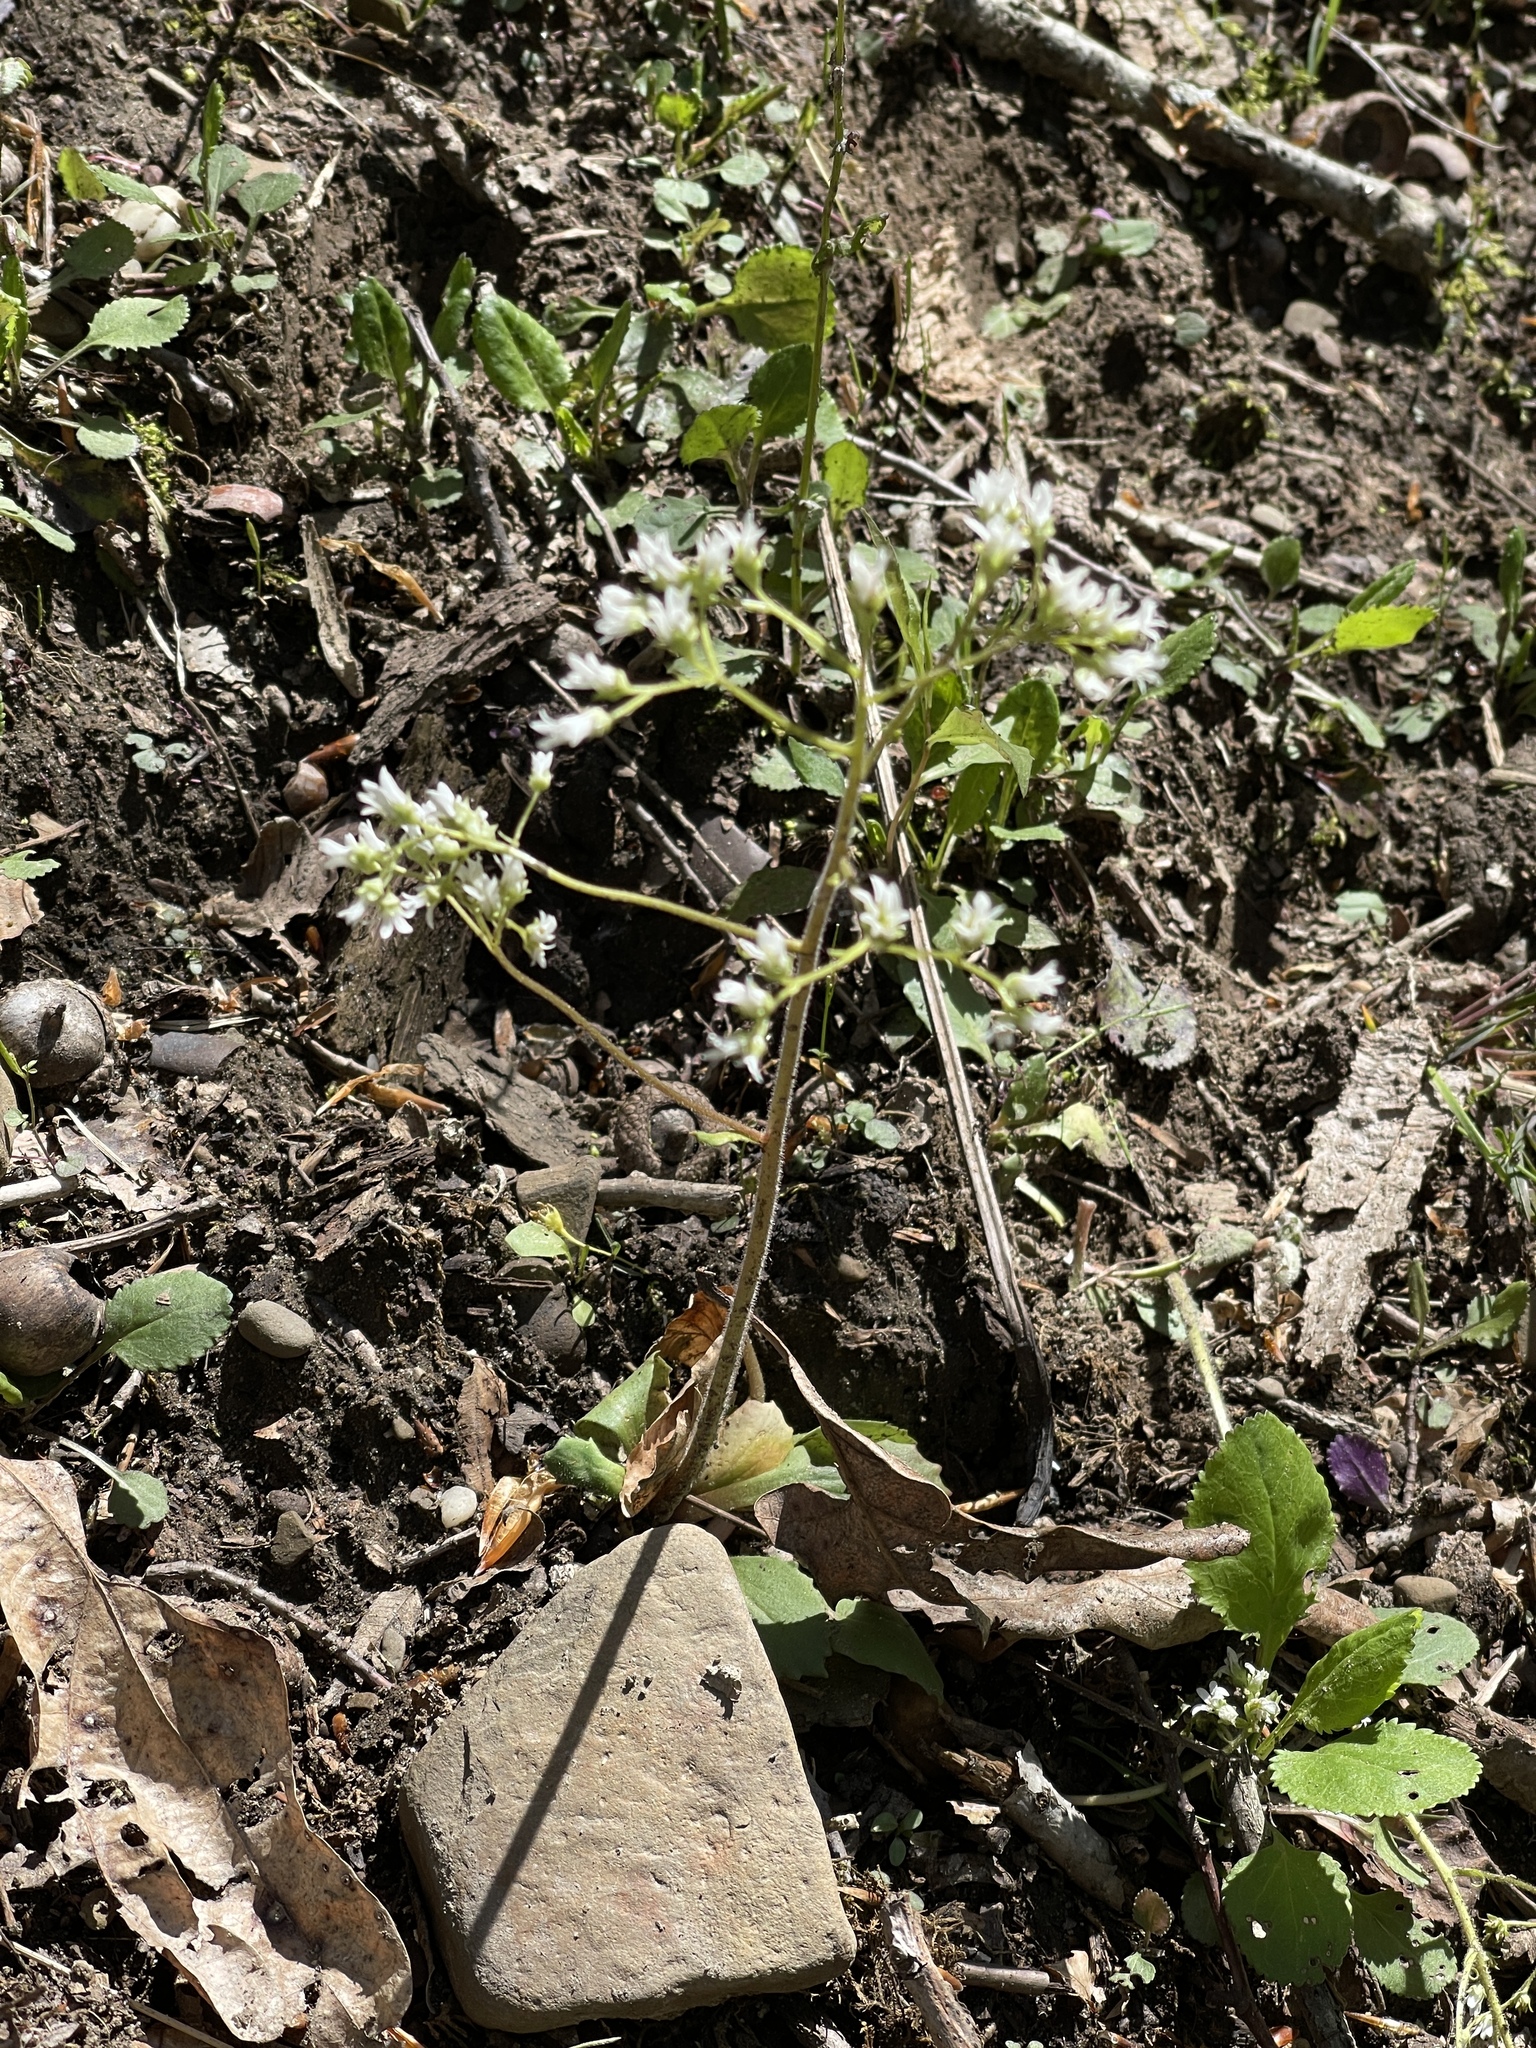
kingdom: Plantae
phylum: Tracheophyta
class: Magnoliopsida
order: Saxifragales
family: Saxifragaceae
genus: Micranthes
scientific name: Micranthes virginiensis
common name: Early saxifrage
